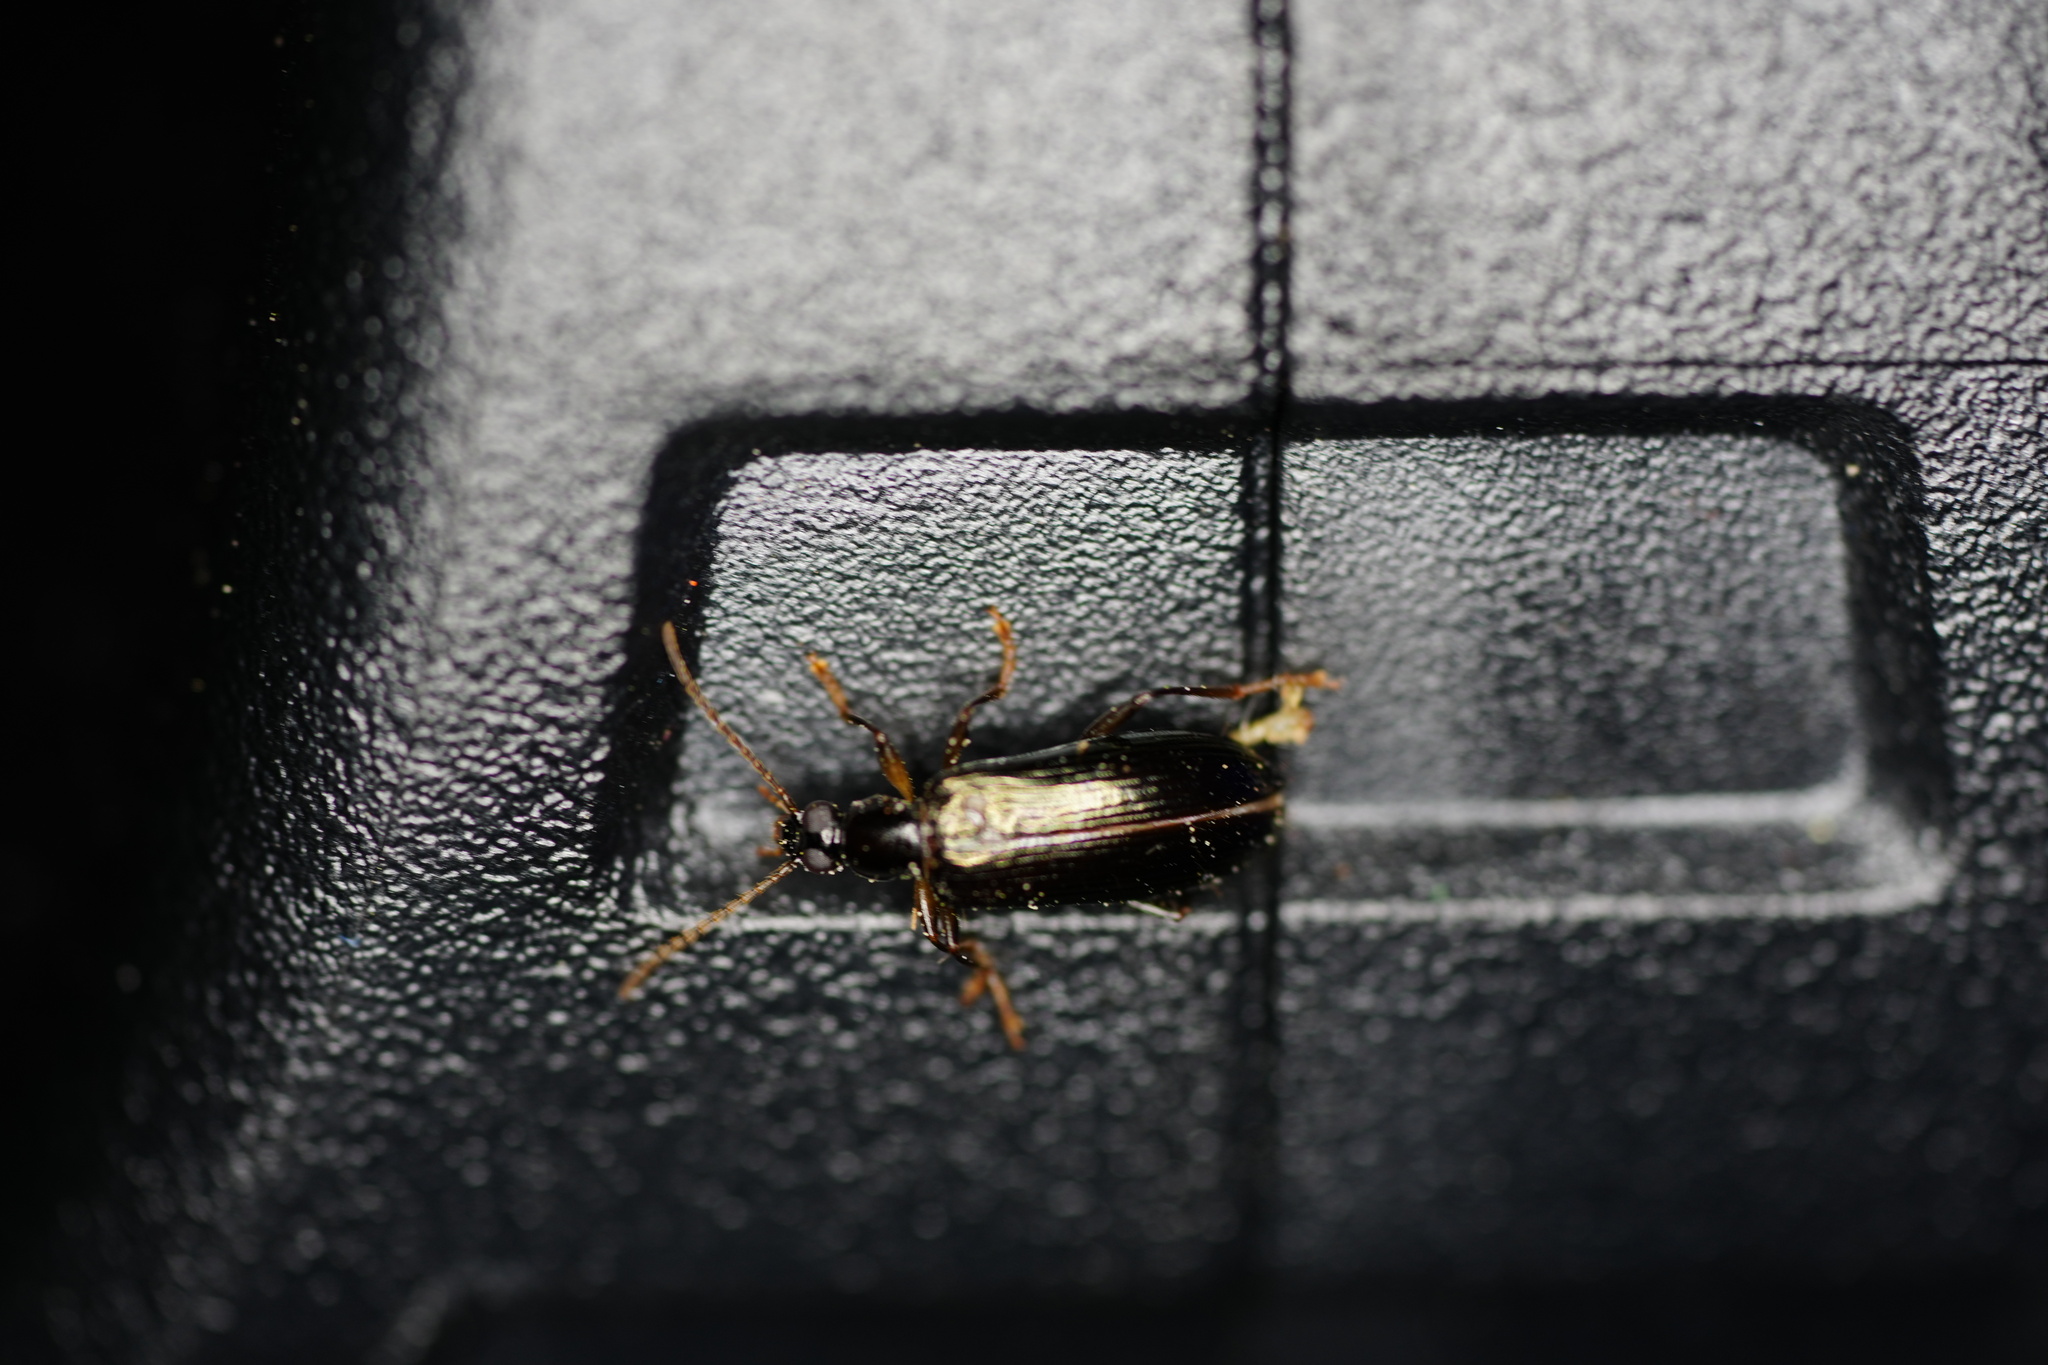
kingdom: Animalia
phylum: Arthropoda
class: Insecta
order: Coleoptera
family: Carabidae
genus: Dromius
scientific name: Dromius piceus
